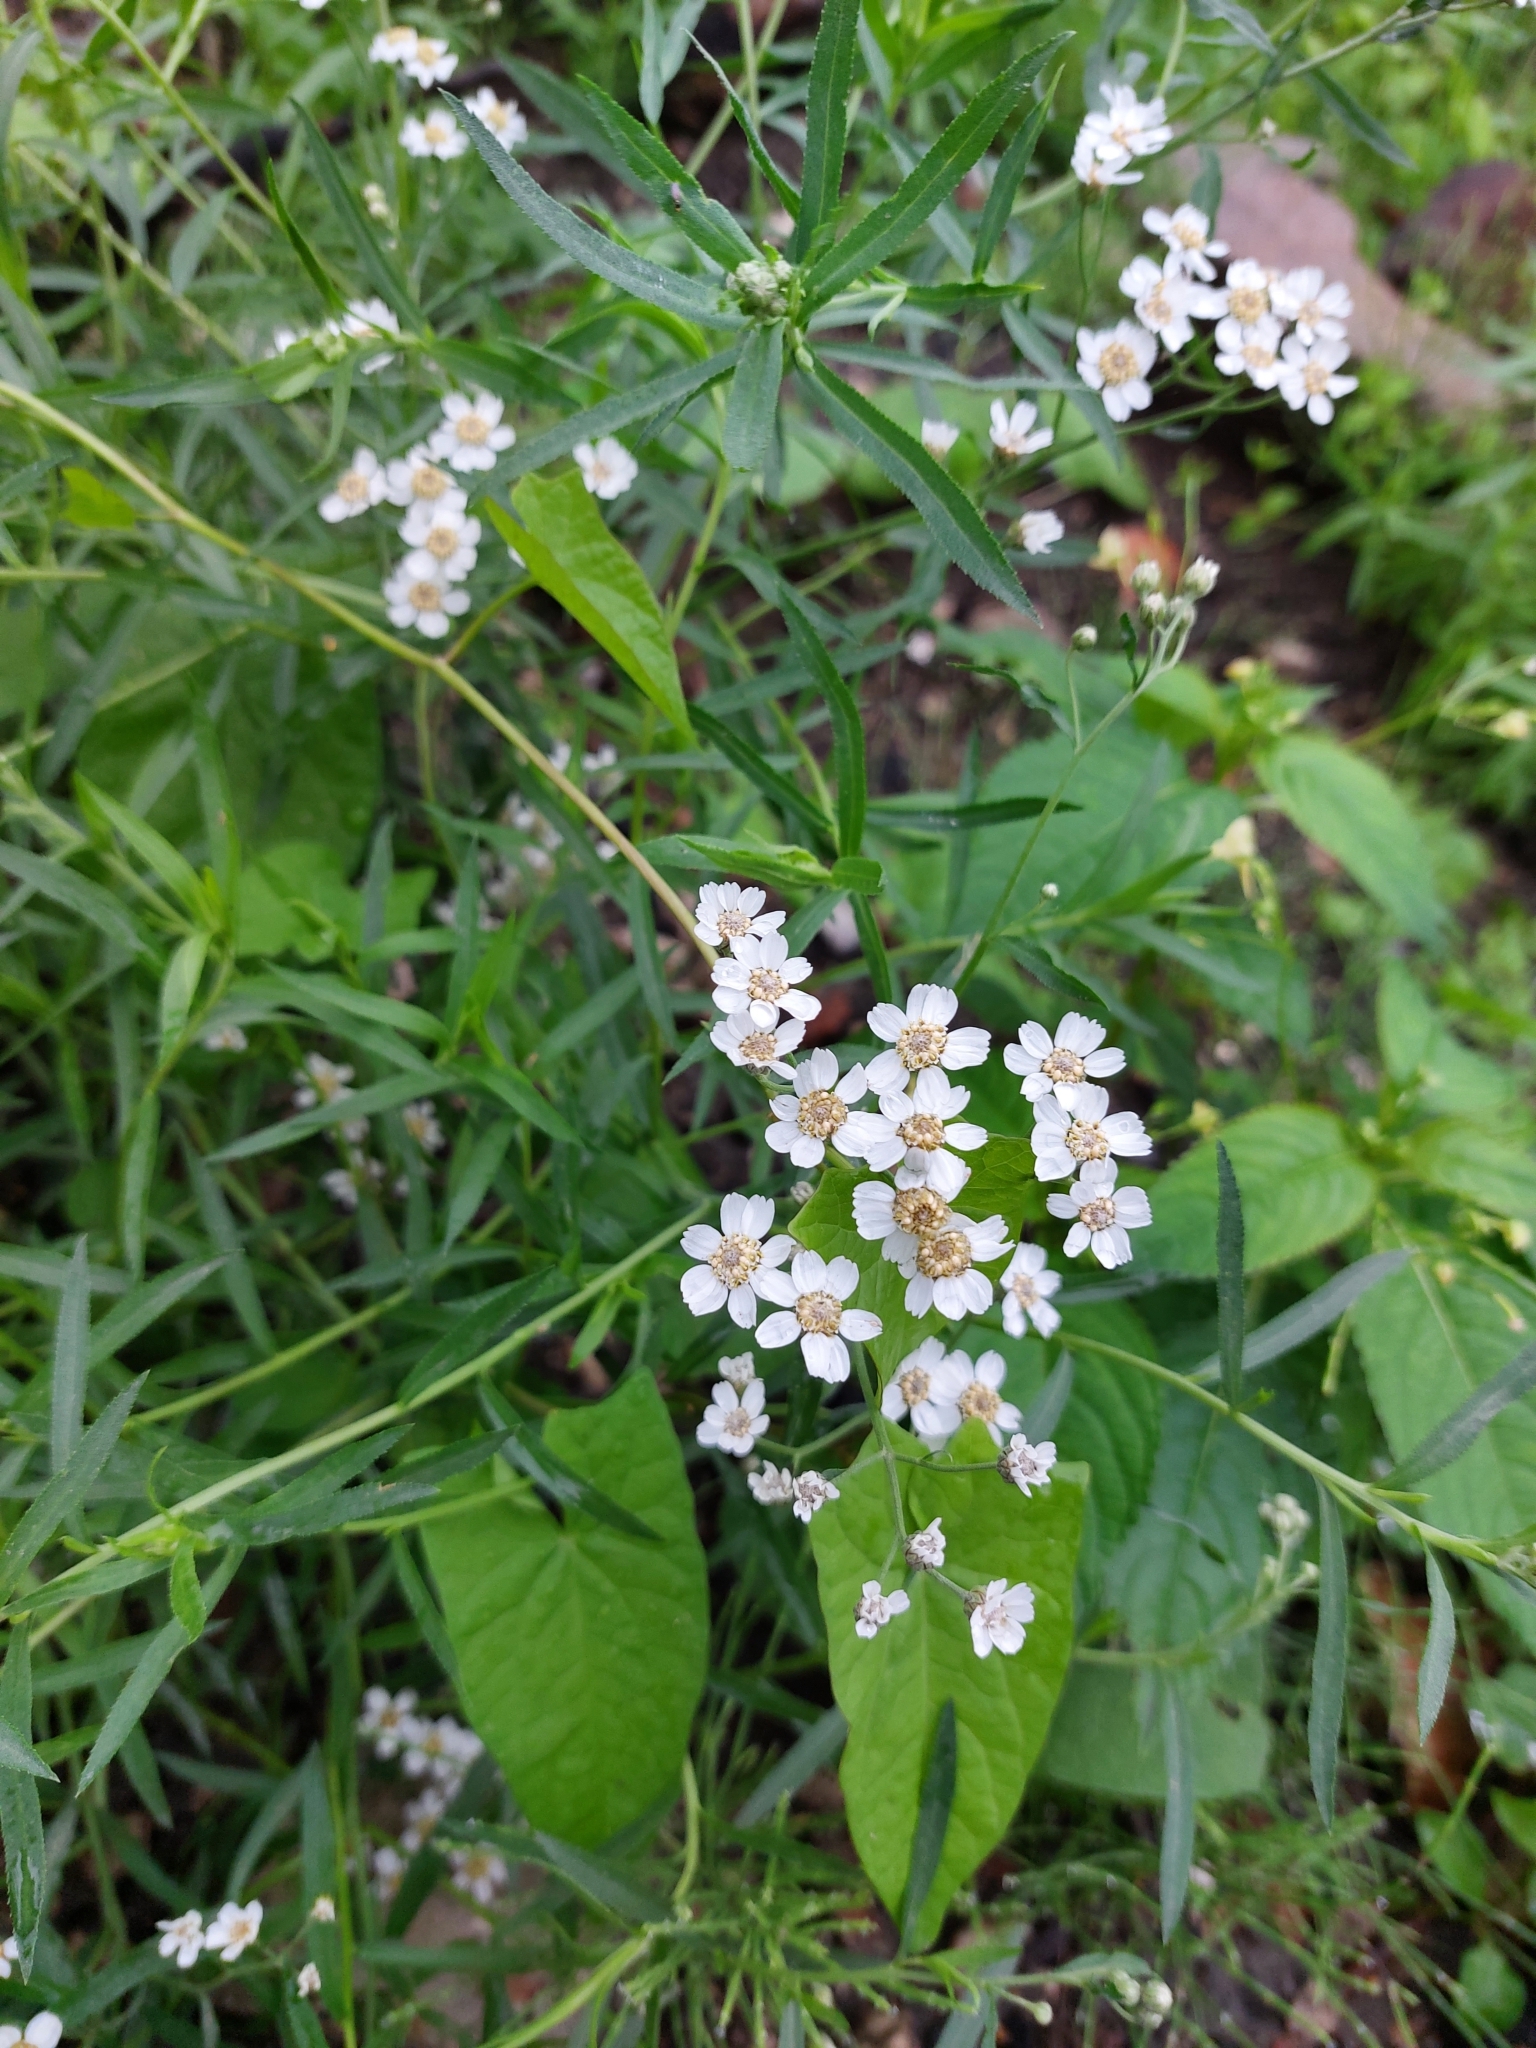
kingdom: Plantae
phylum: Tracheophyta
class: Magnoliopsida
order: Asterales
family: Asteraceae
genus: Achillea
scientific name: Achillea salicifolia
